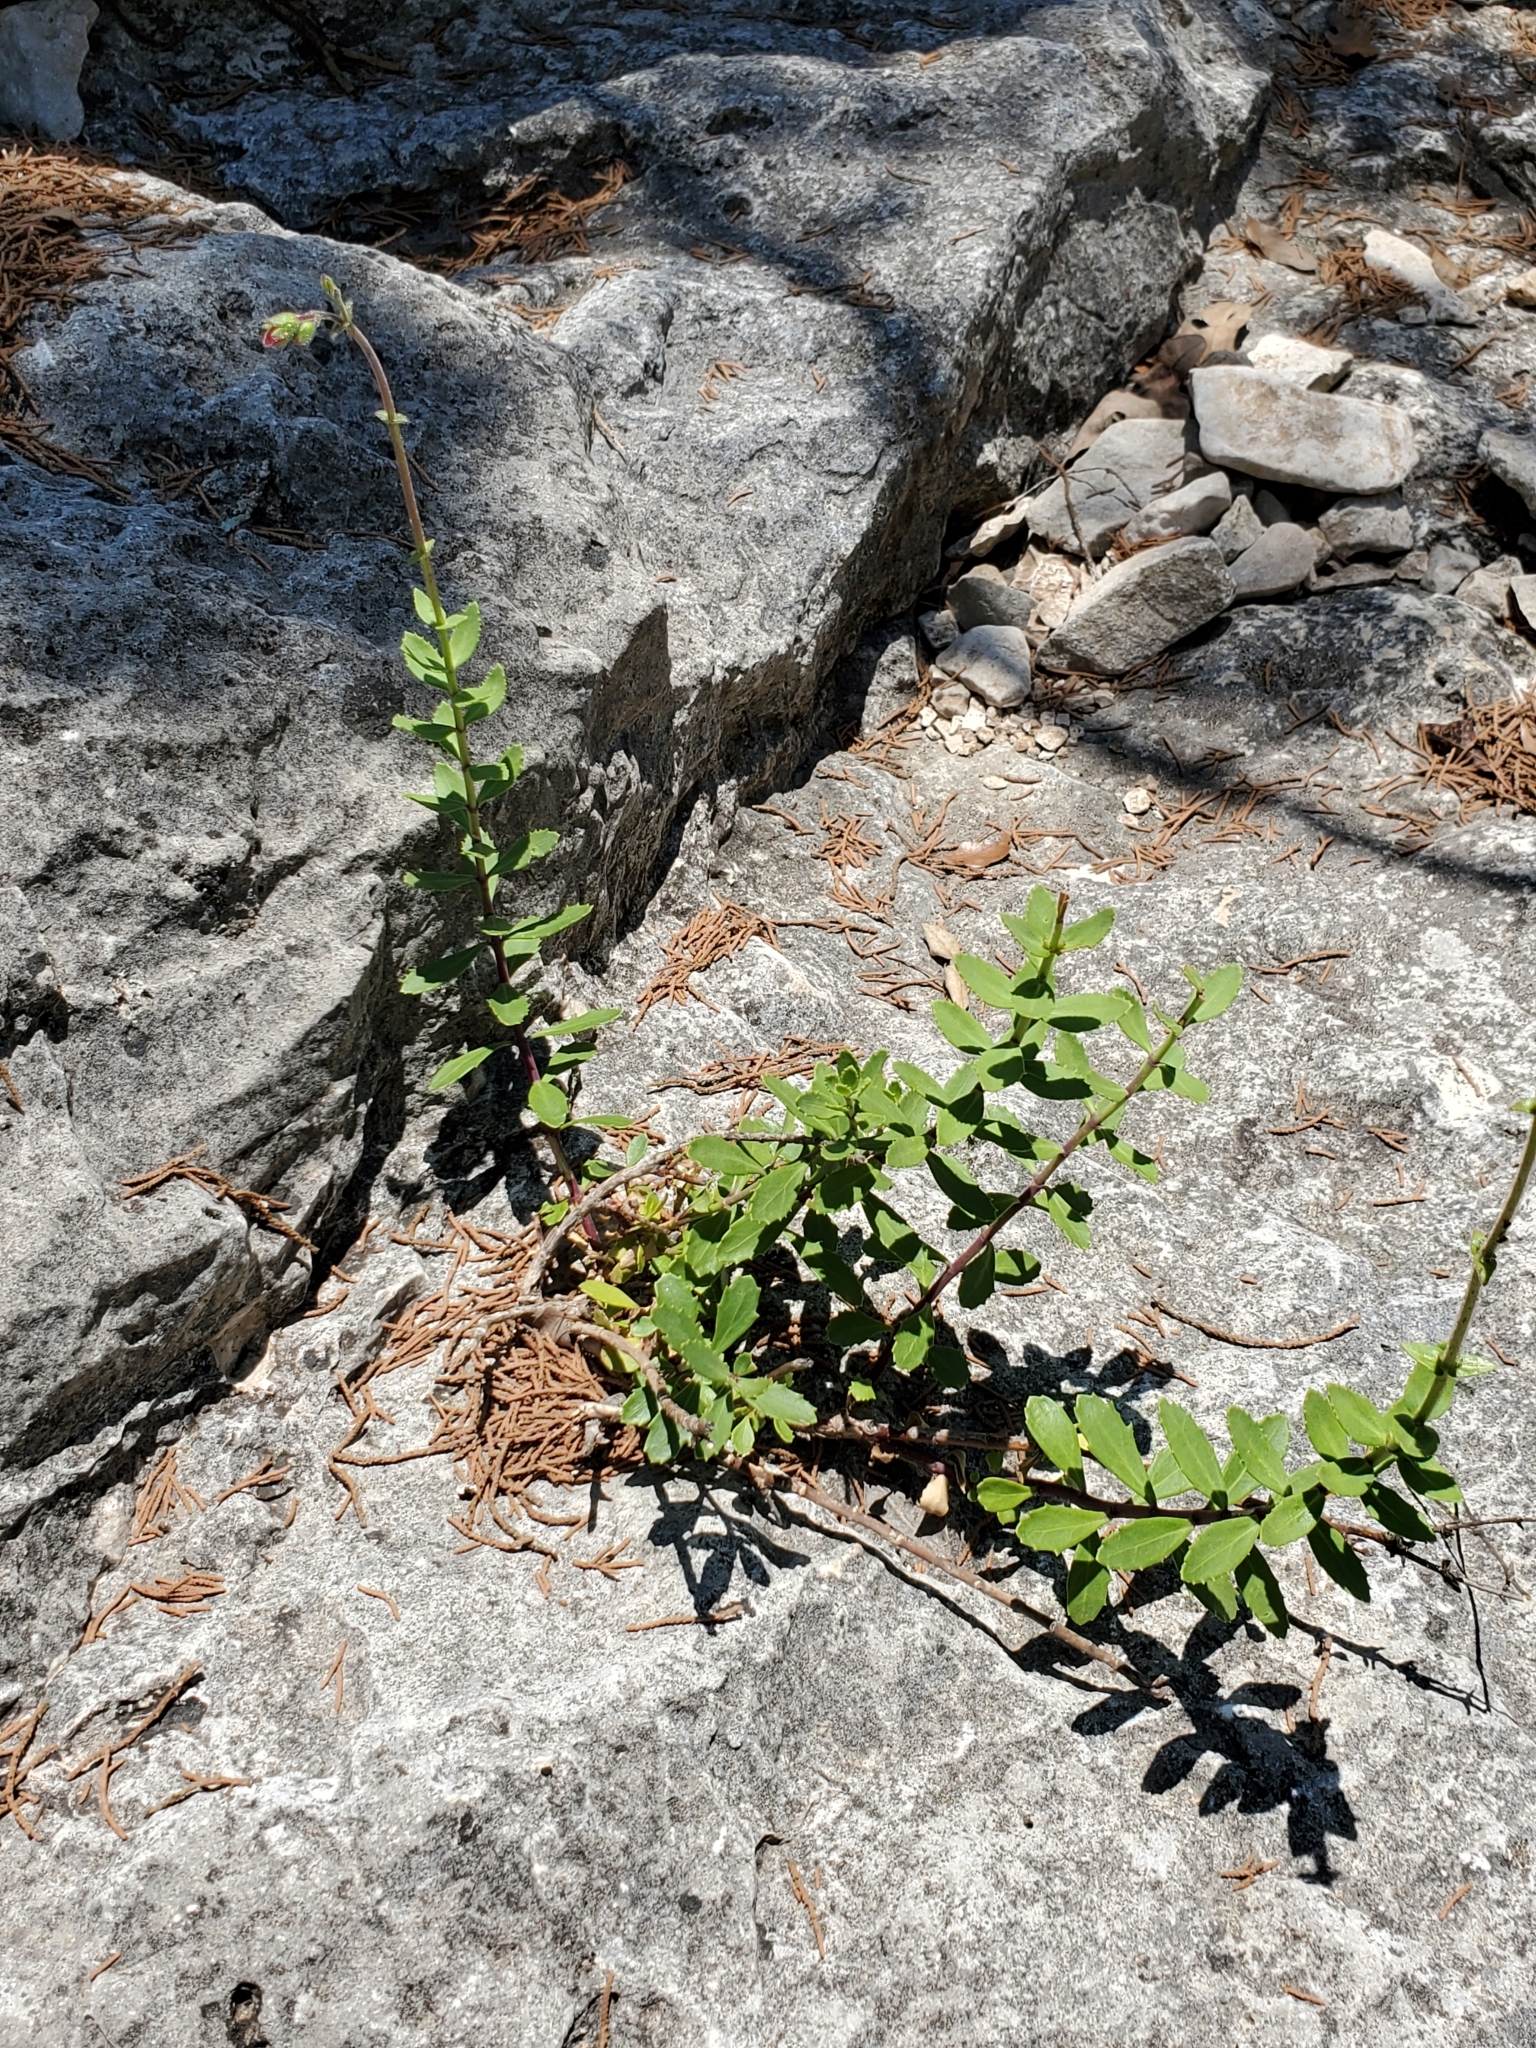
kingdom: Plantae
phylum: Tracheophyta
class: Magnoliopsida
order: Lamiales
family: Plantaginaceae
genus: Penstemon
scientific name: Penstemon baccharifolius
